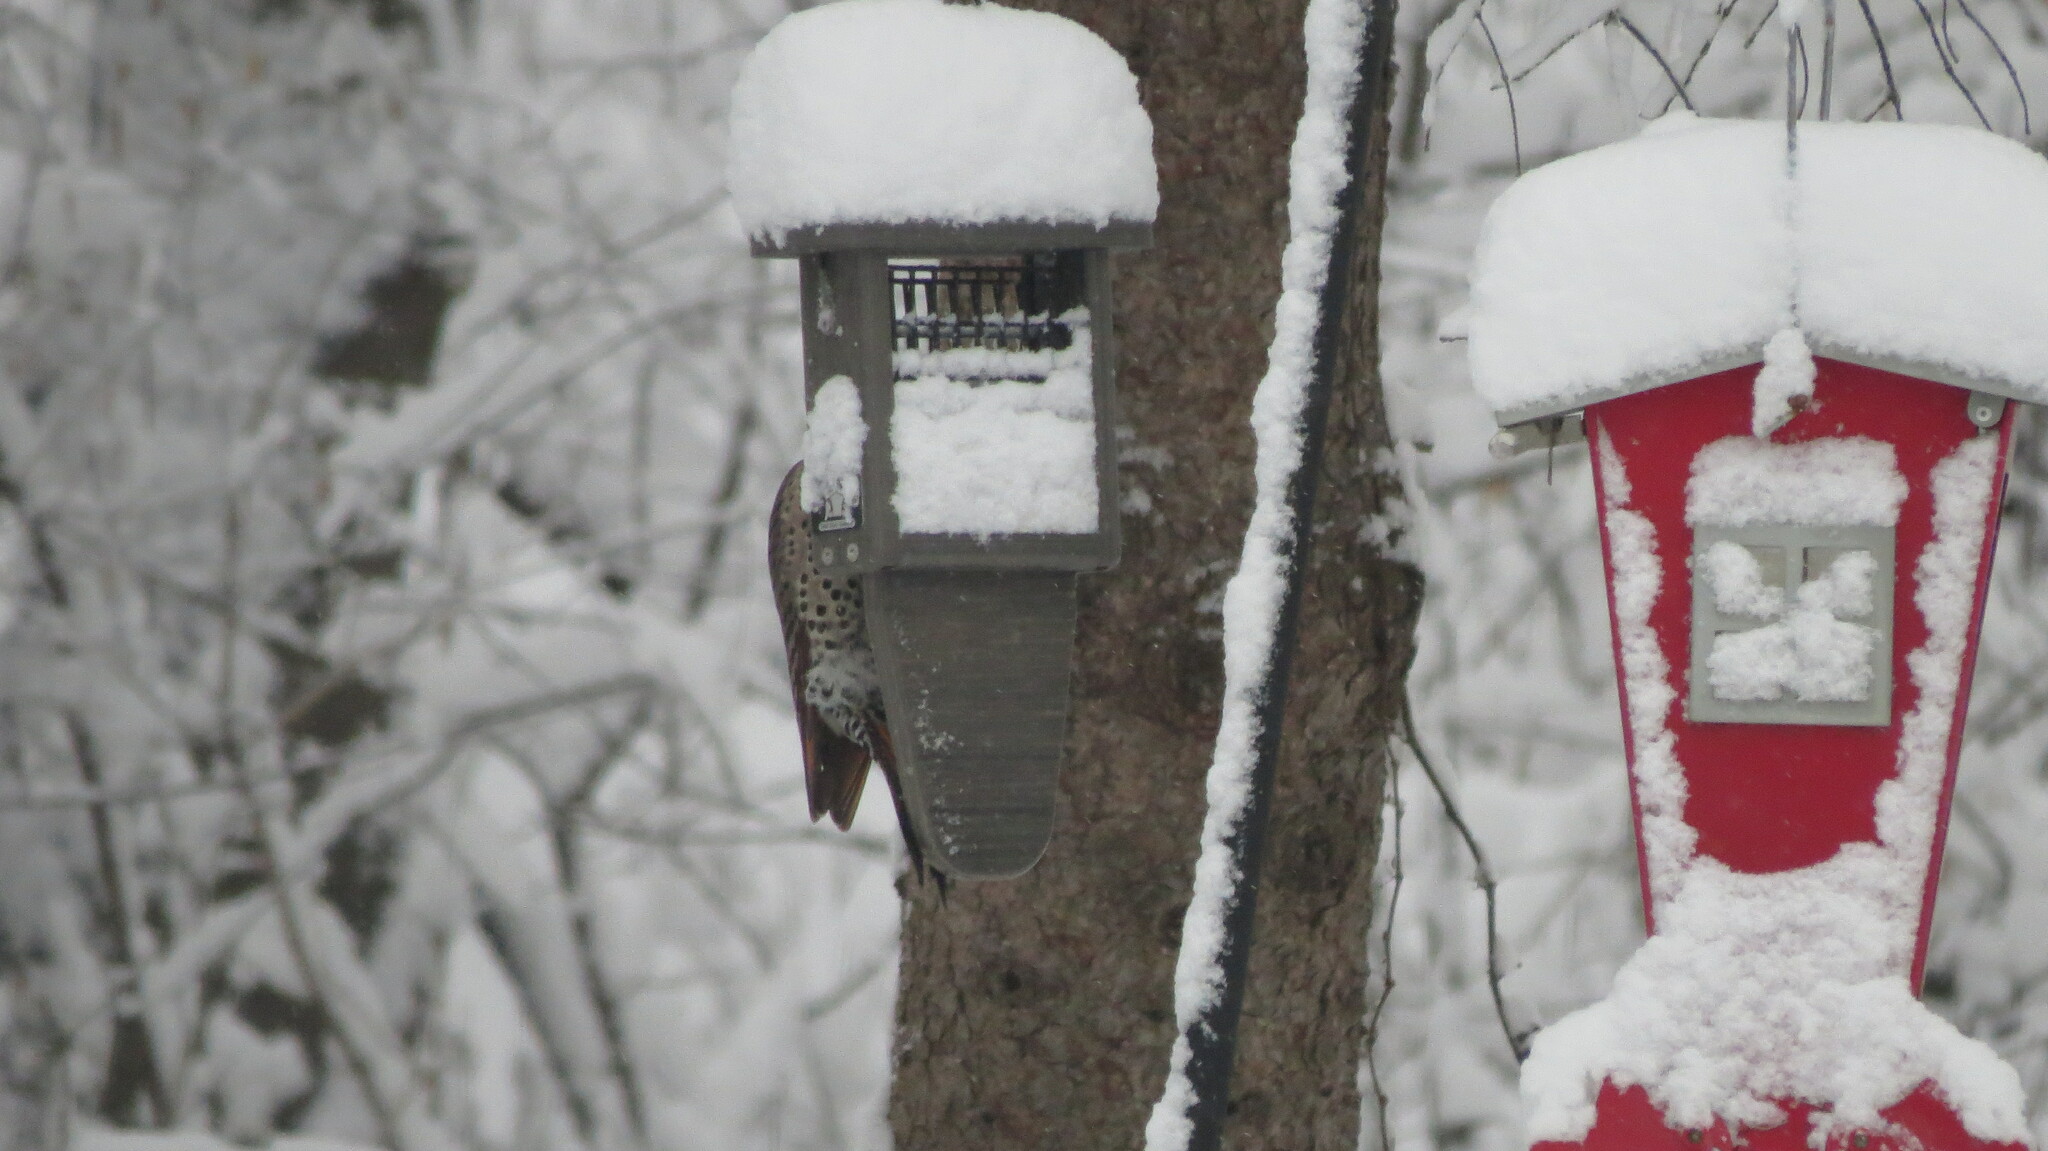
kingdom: Animalia
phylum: Chordata
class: Aves
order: Piciformes
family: Picidae
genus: Colaptes
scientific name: Colaptes
